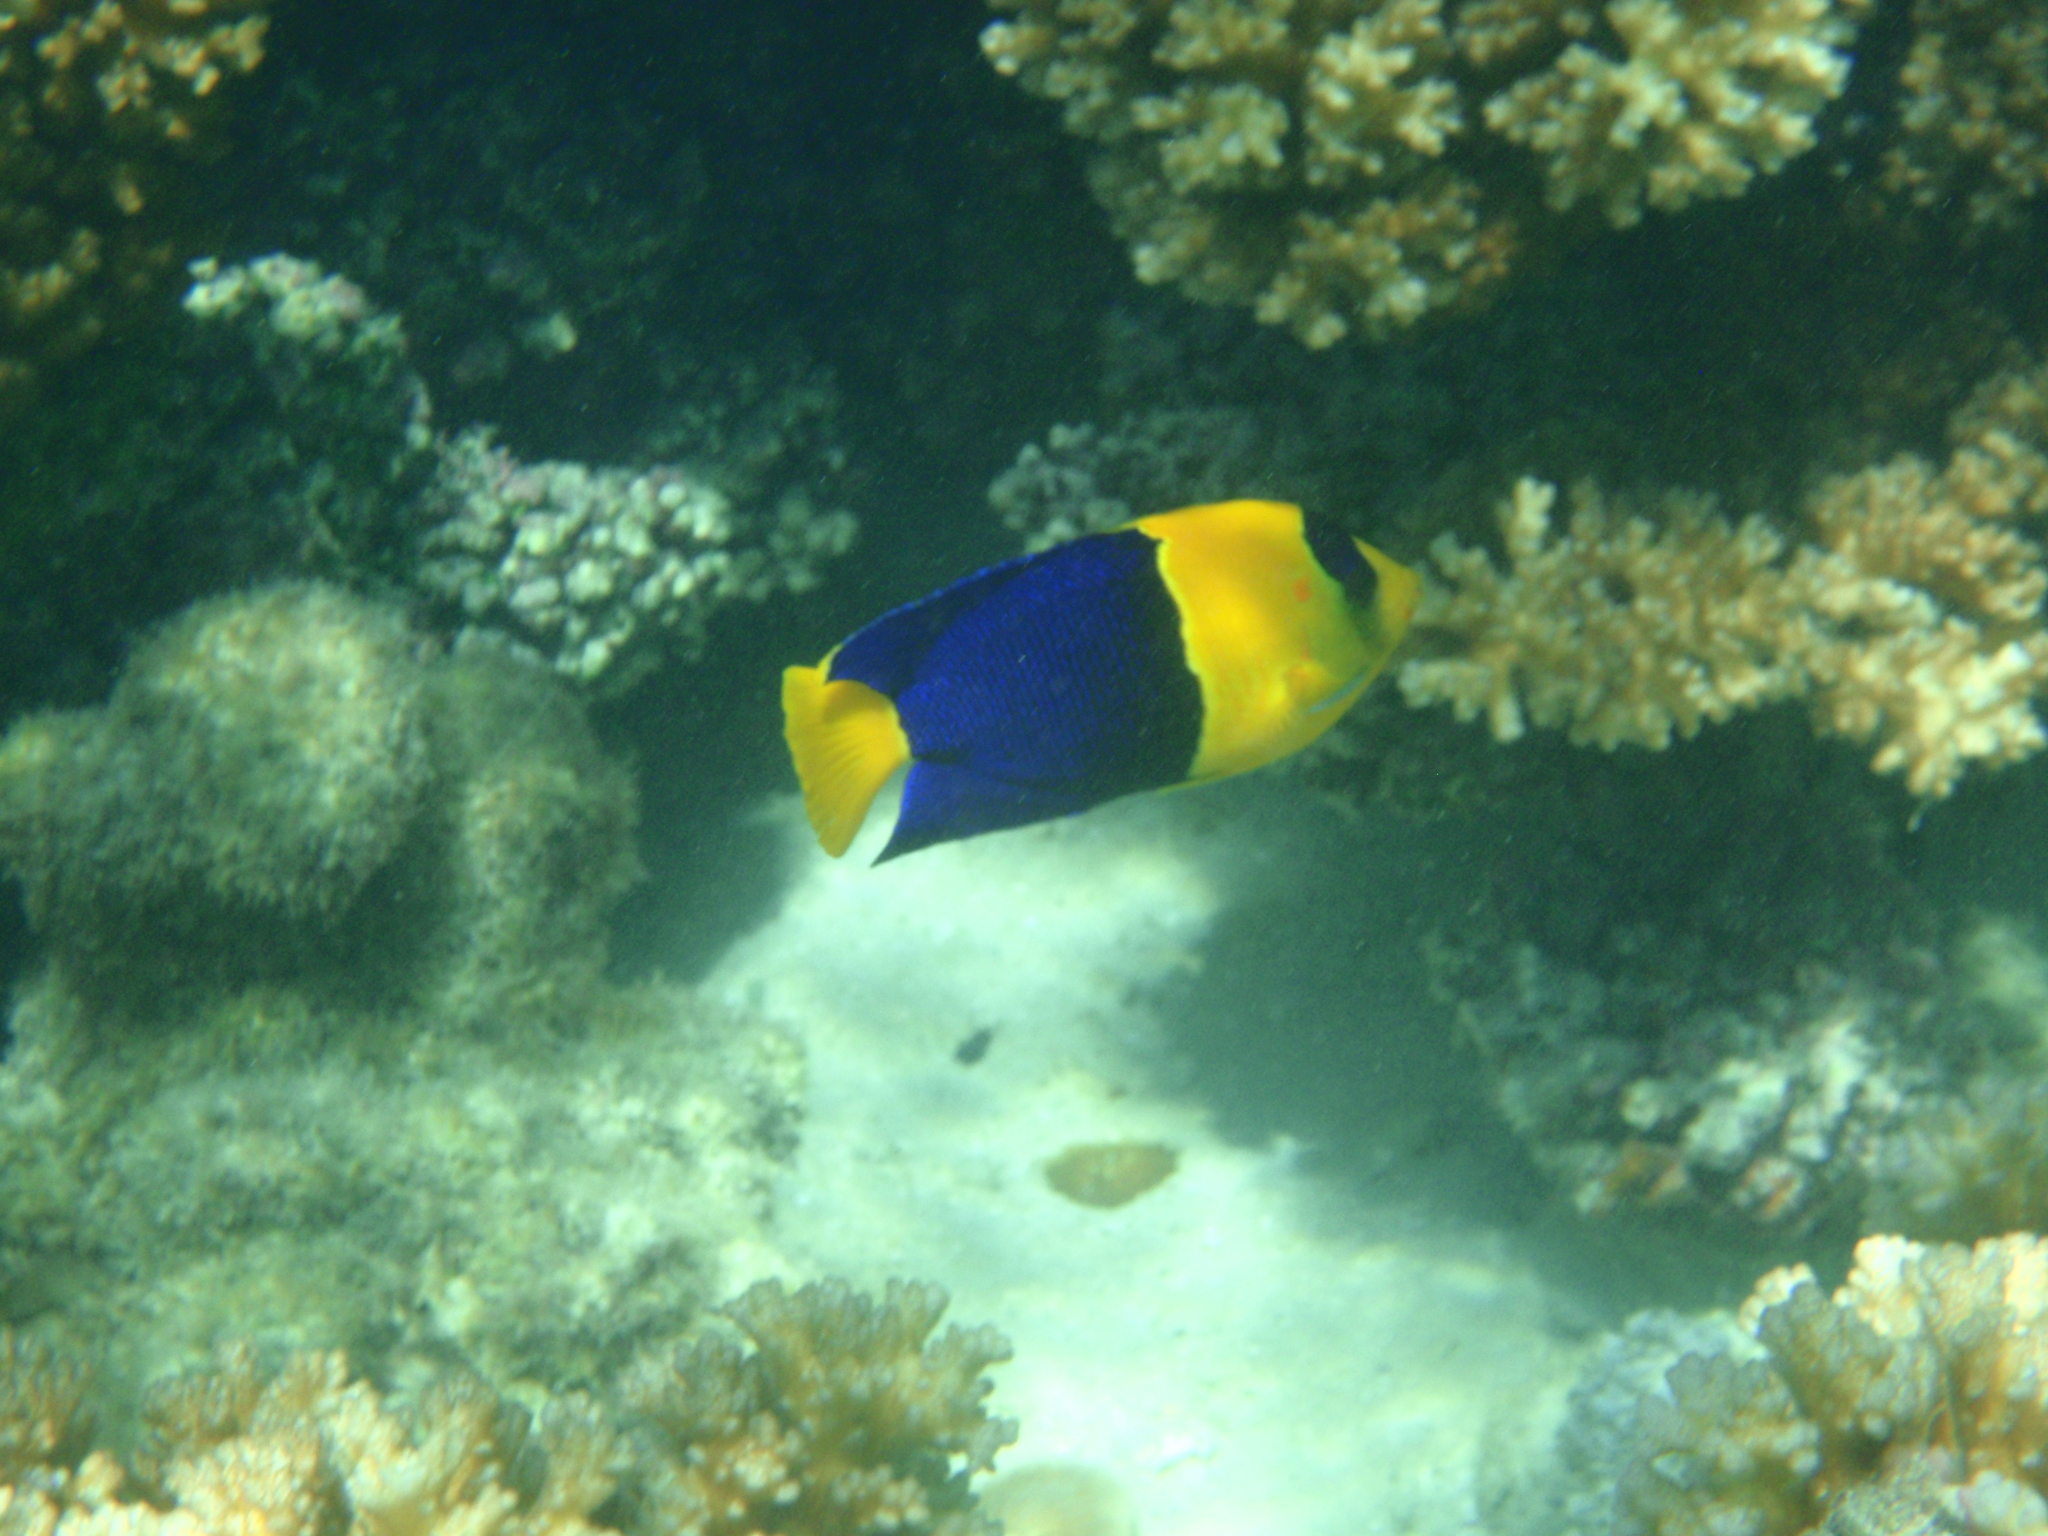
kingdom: Animalia
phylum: Chordata
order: Perciformes
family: Pomacanthidae
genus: Centropyge
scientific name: Centropyge bicolor
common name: Bicolor angelfish
